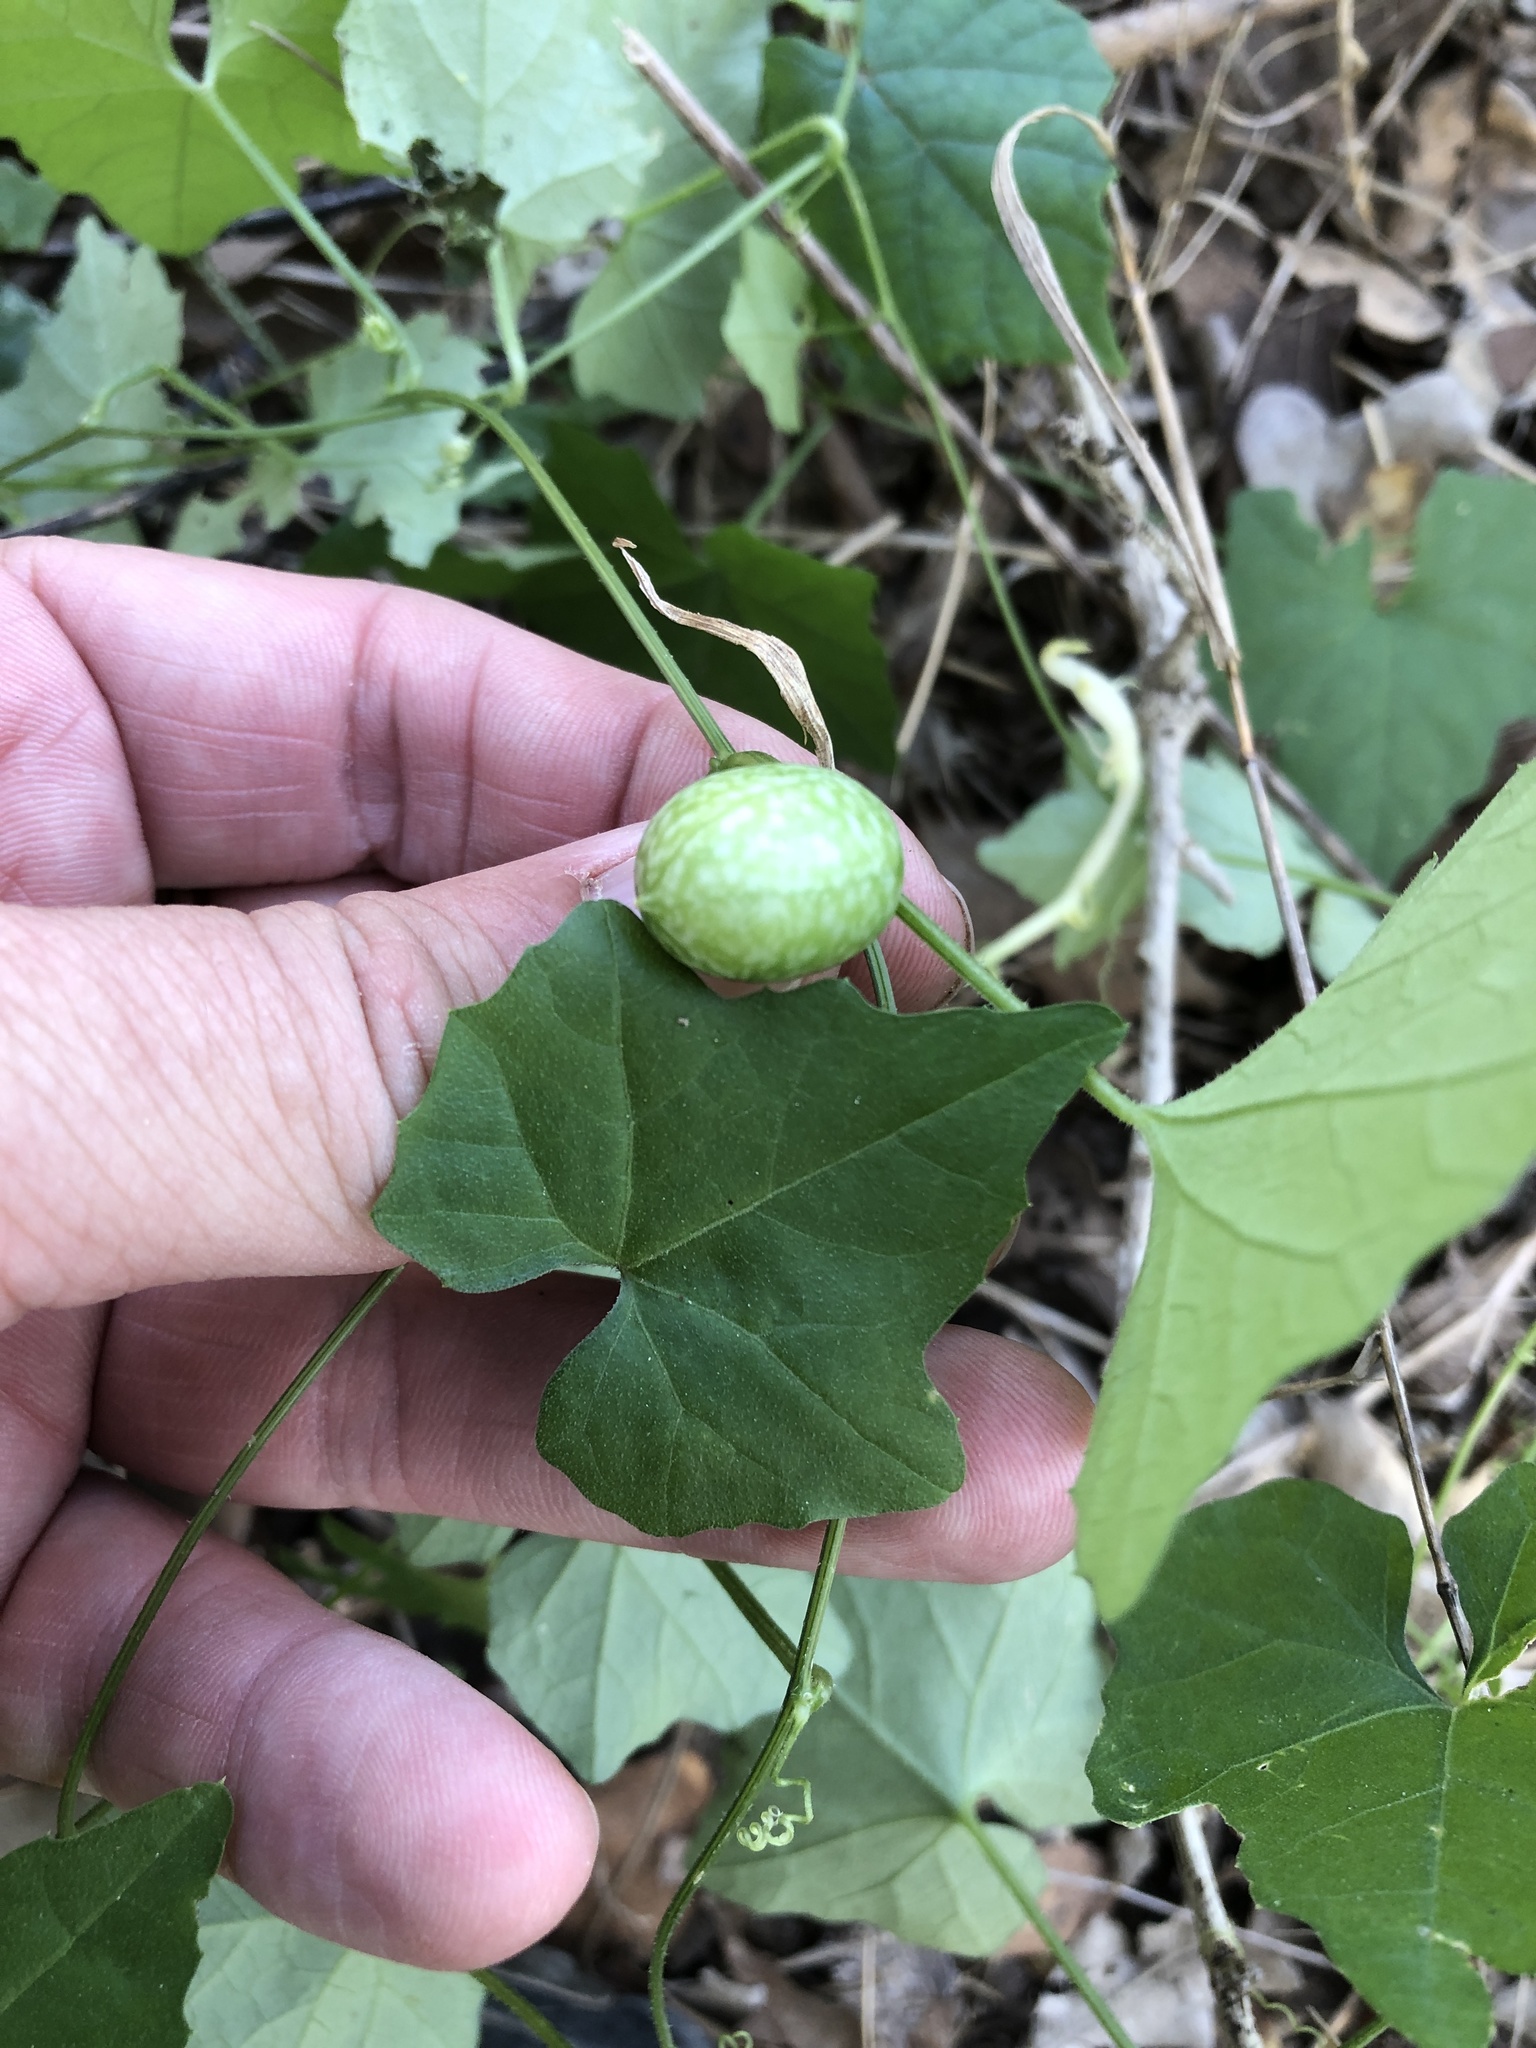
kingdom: Plantae
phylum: Tracheophyta
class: Magnoliopsida
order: Cucurbitales
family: Cucurbitaceae
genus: Melothria
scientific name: Melothria pendula
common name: Creeping-cucumber
